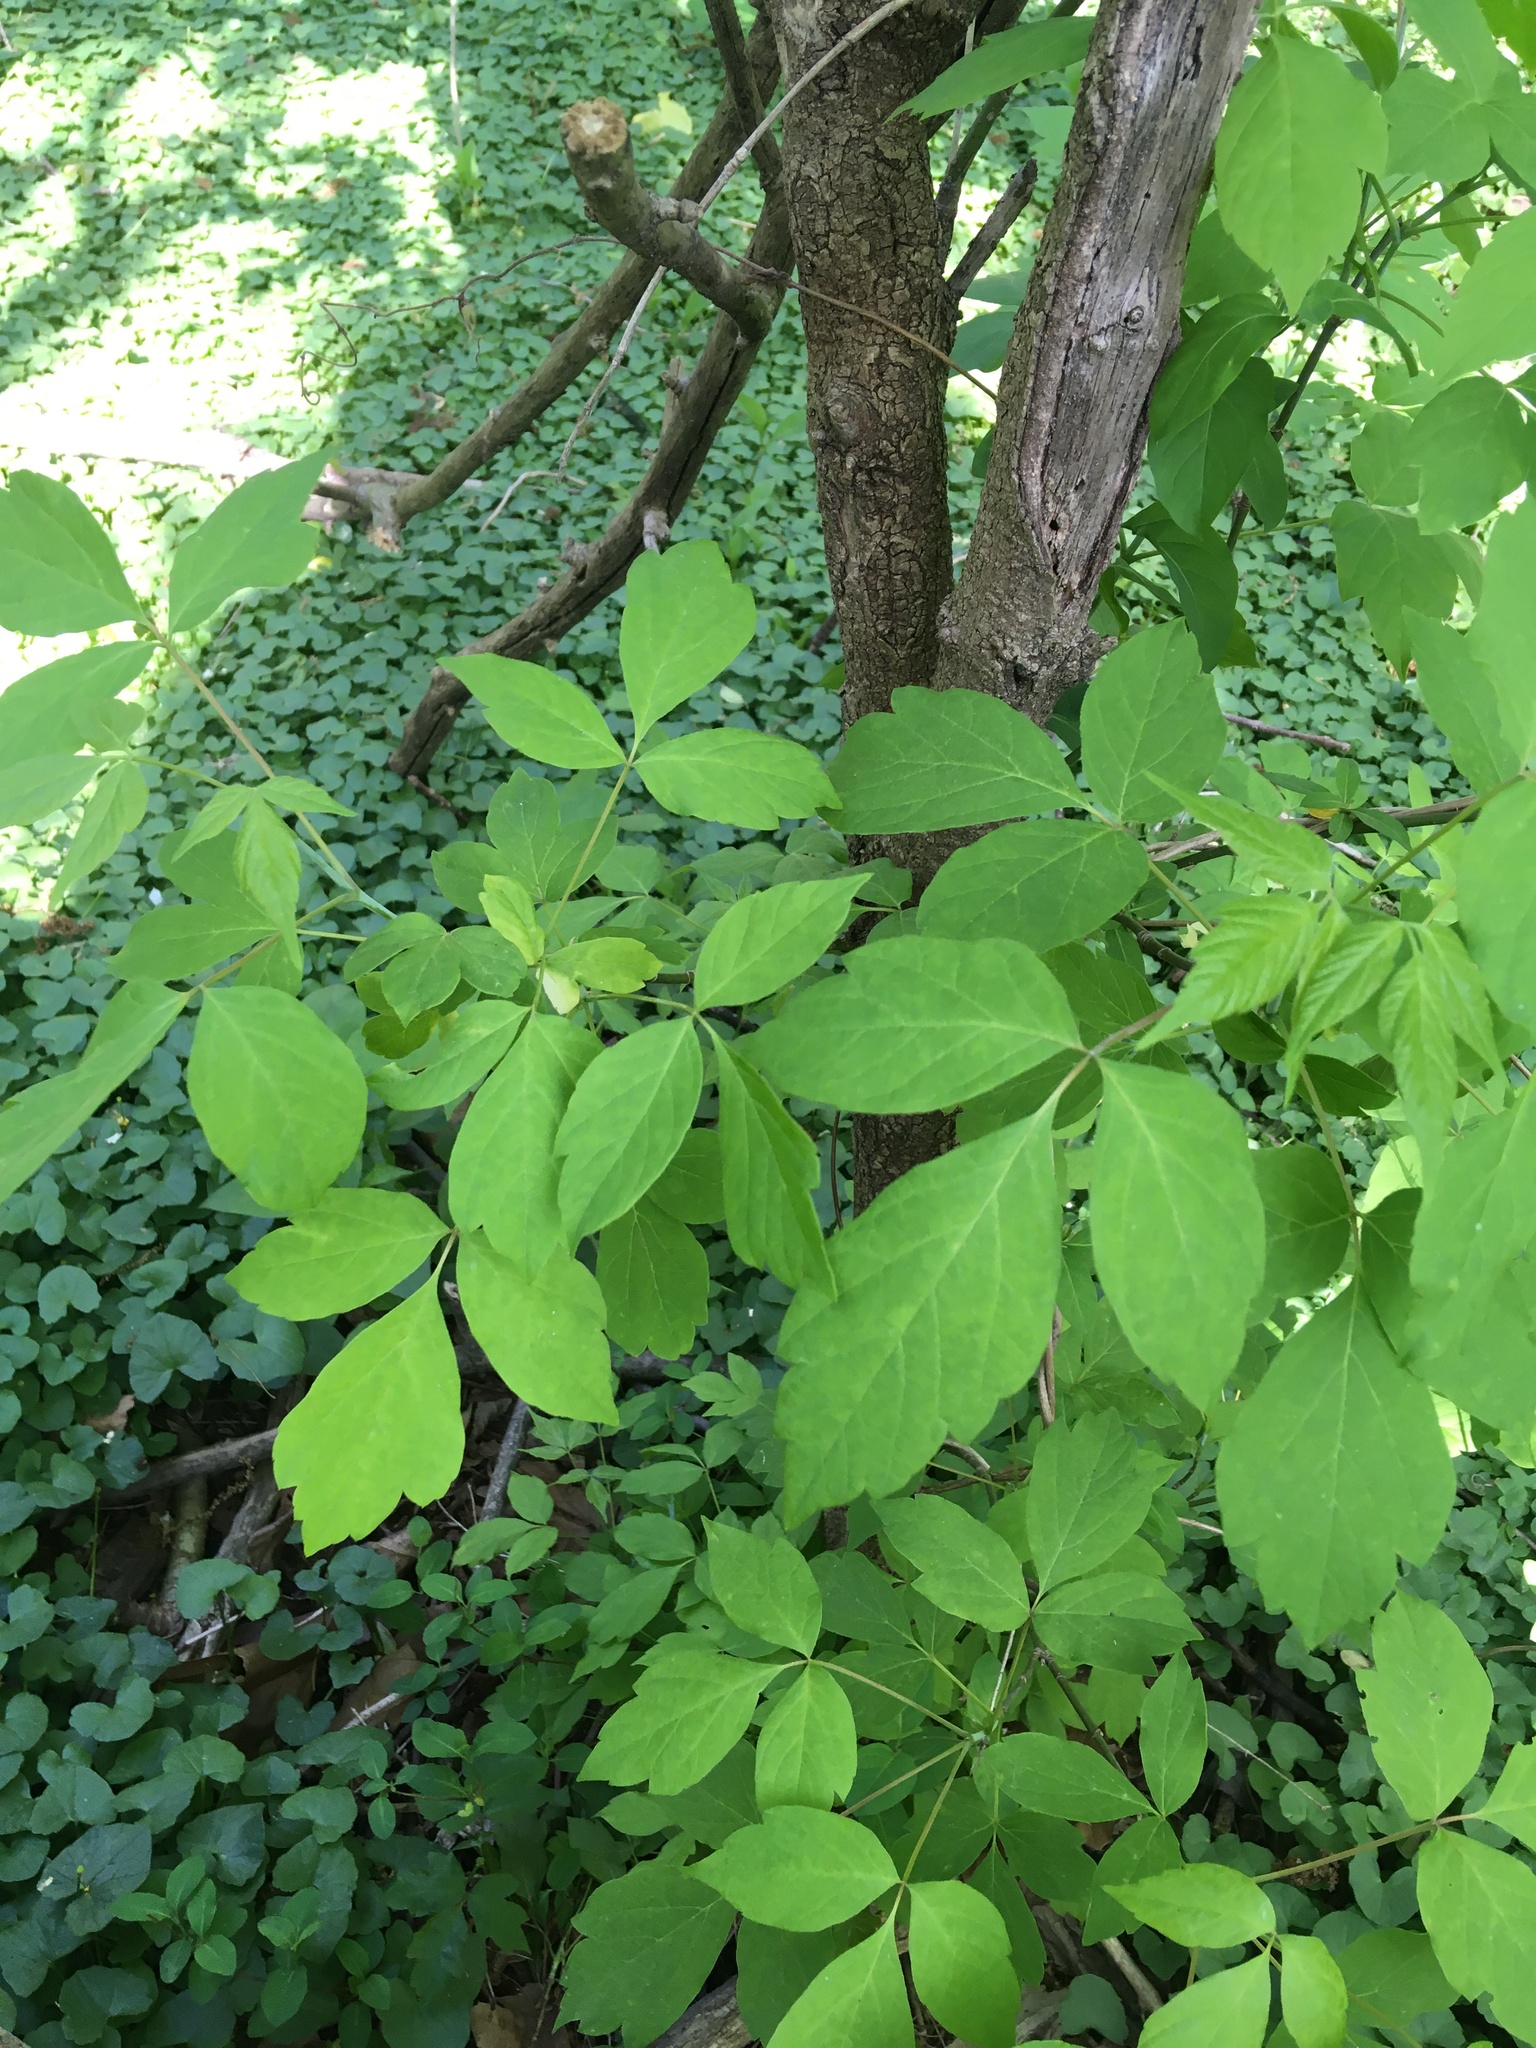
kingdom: Plantae
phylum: Tracheophyta
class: Magnoliopsida
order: Sapindales
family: Sapindaceae
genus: Acer
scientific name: Acer negundo
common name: Ashleaf maple
